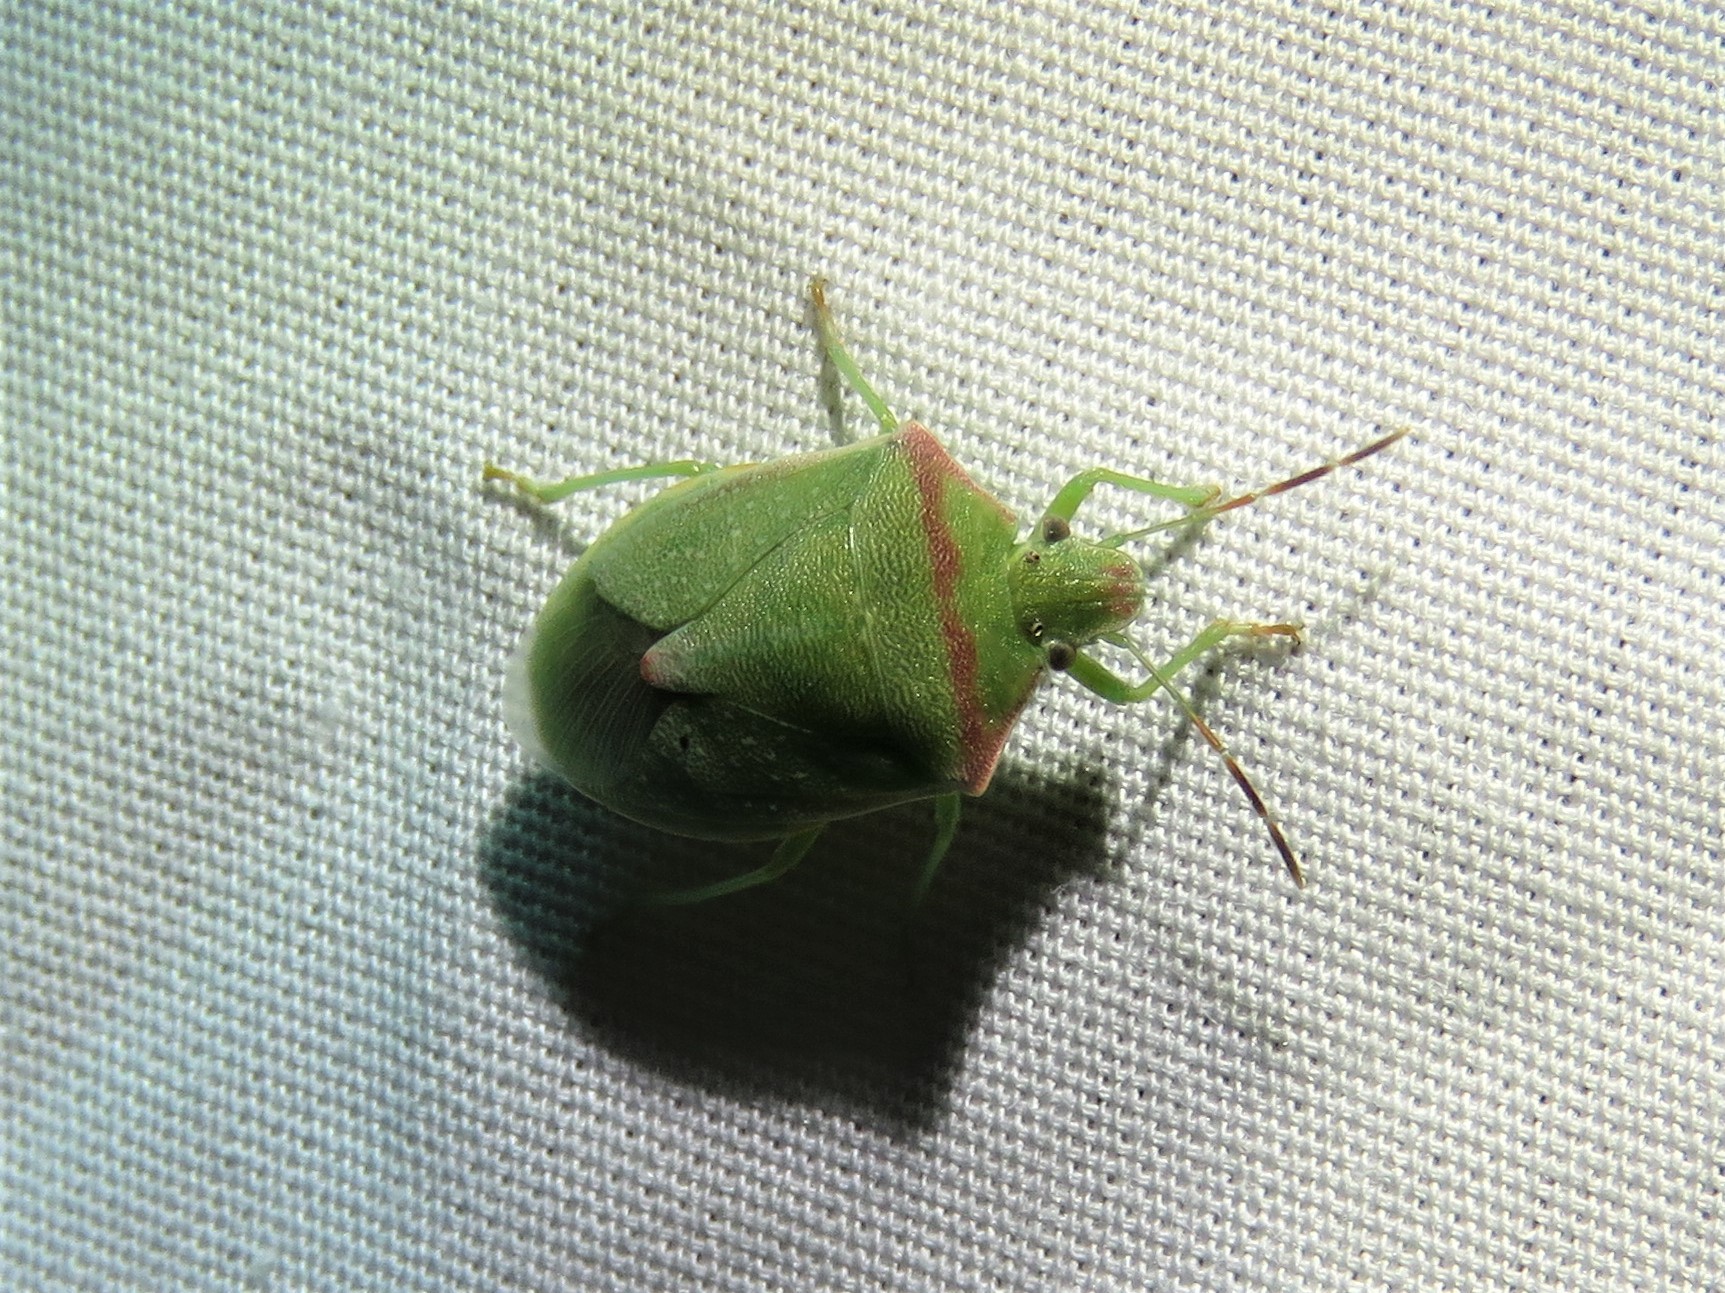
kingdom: Animalia
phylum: Arthropoda
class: Insecta
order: Hemiptera
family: Pentatomidae
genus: Thyanta
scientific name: Thyanta custator
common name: Stink bug
